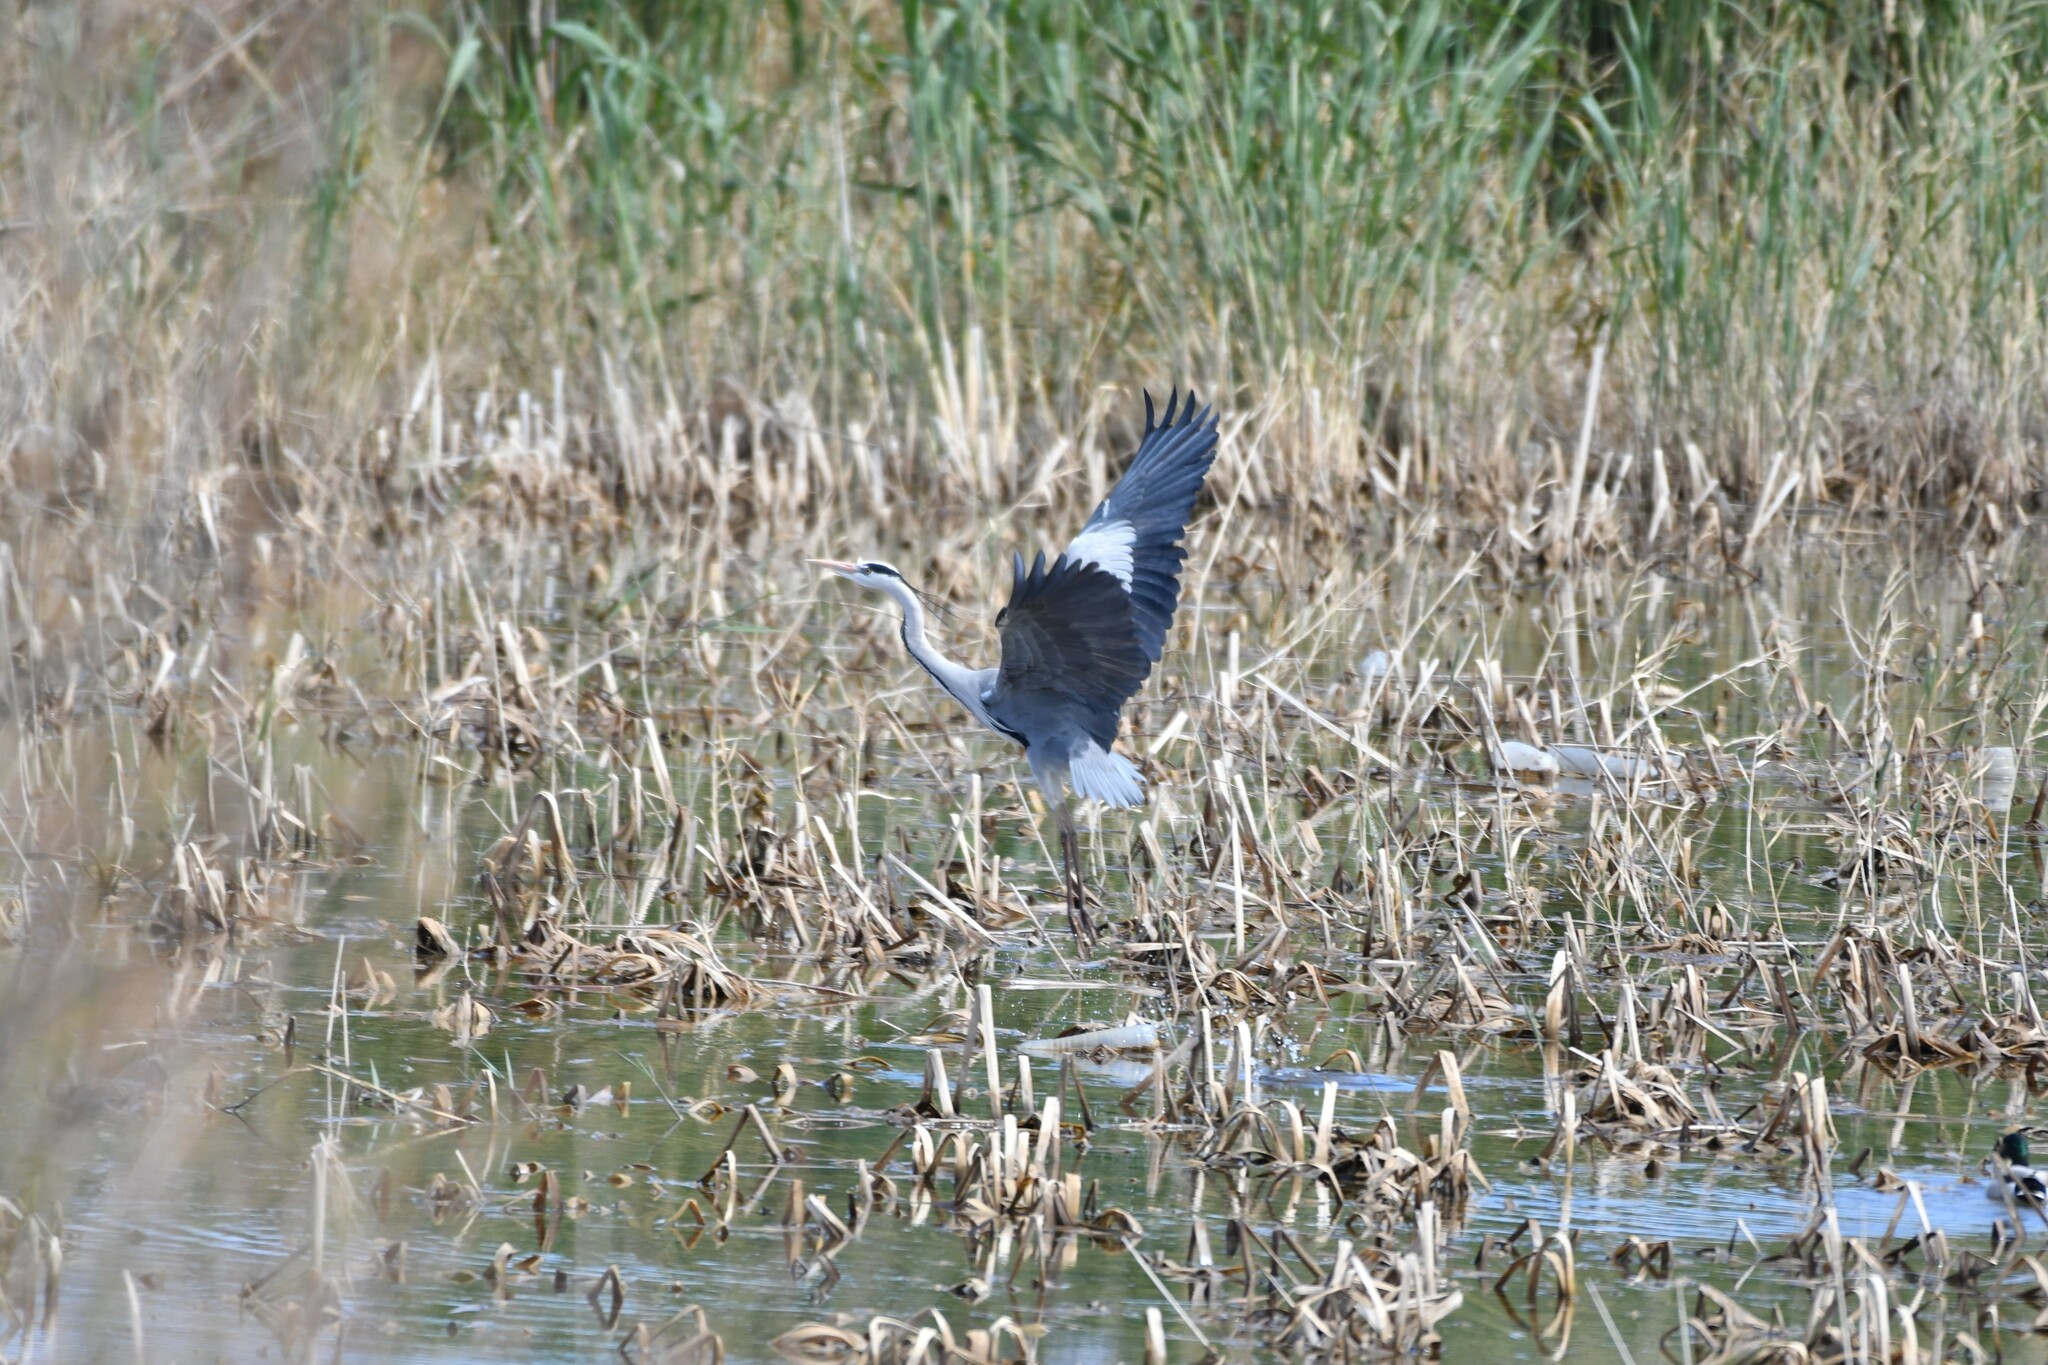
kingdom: Animalia
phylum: Chordata
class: Aves
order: Pelecaniformes
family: Ardeidae
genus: Ardea
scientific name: Ardea cinerea
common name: Grey heron
